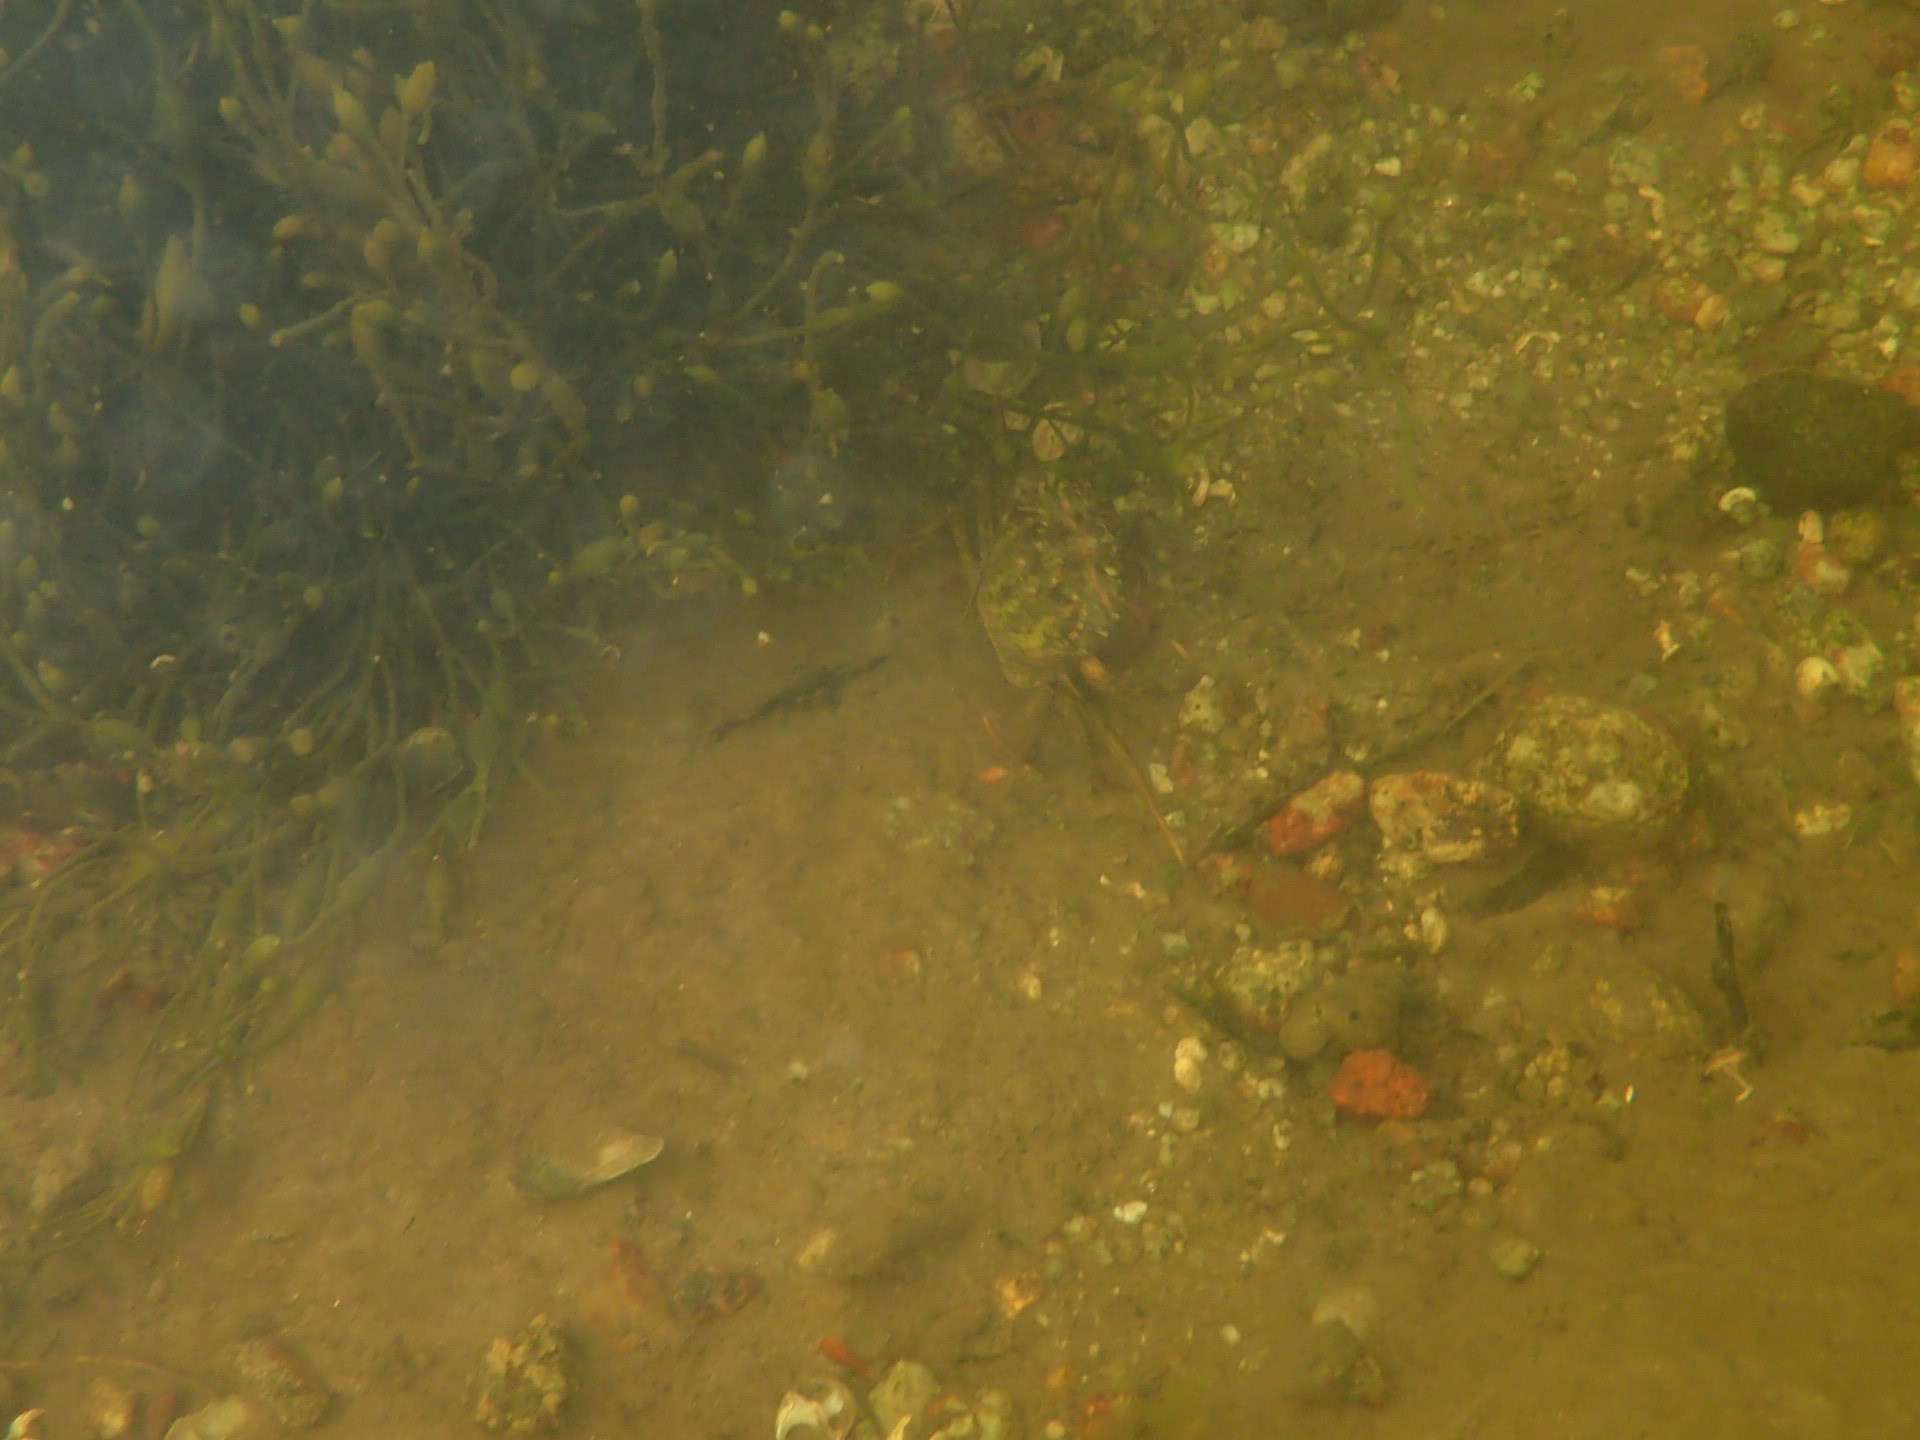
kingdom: Animalia
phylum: Arthropoda
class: Malacostraca
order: Decapoda
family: Carcinidae
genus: Carcinus
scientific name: Carcinus maenas
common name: European green crab
